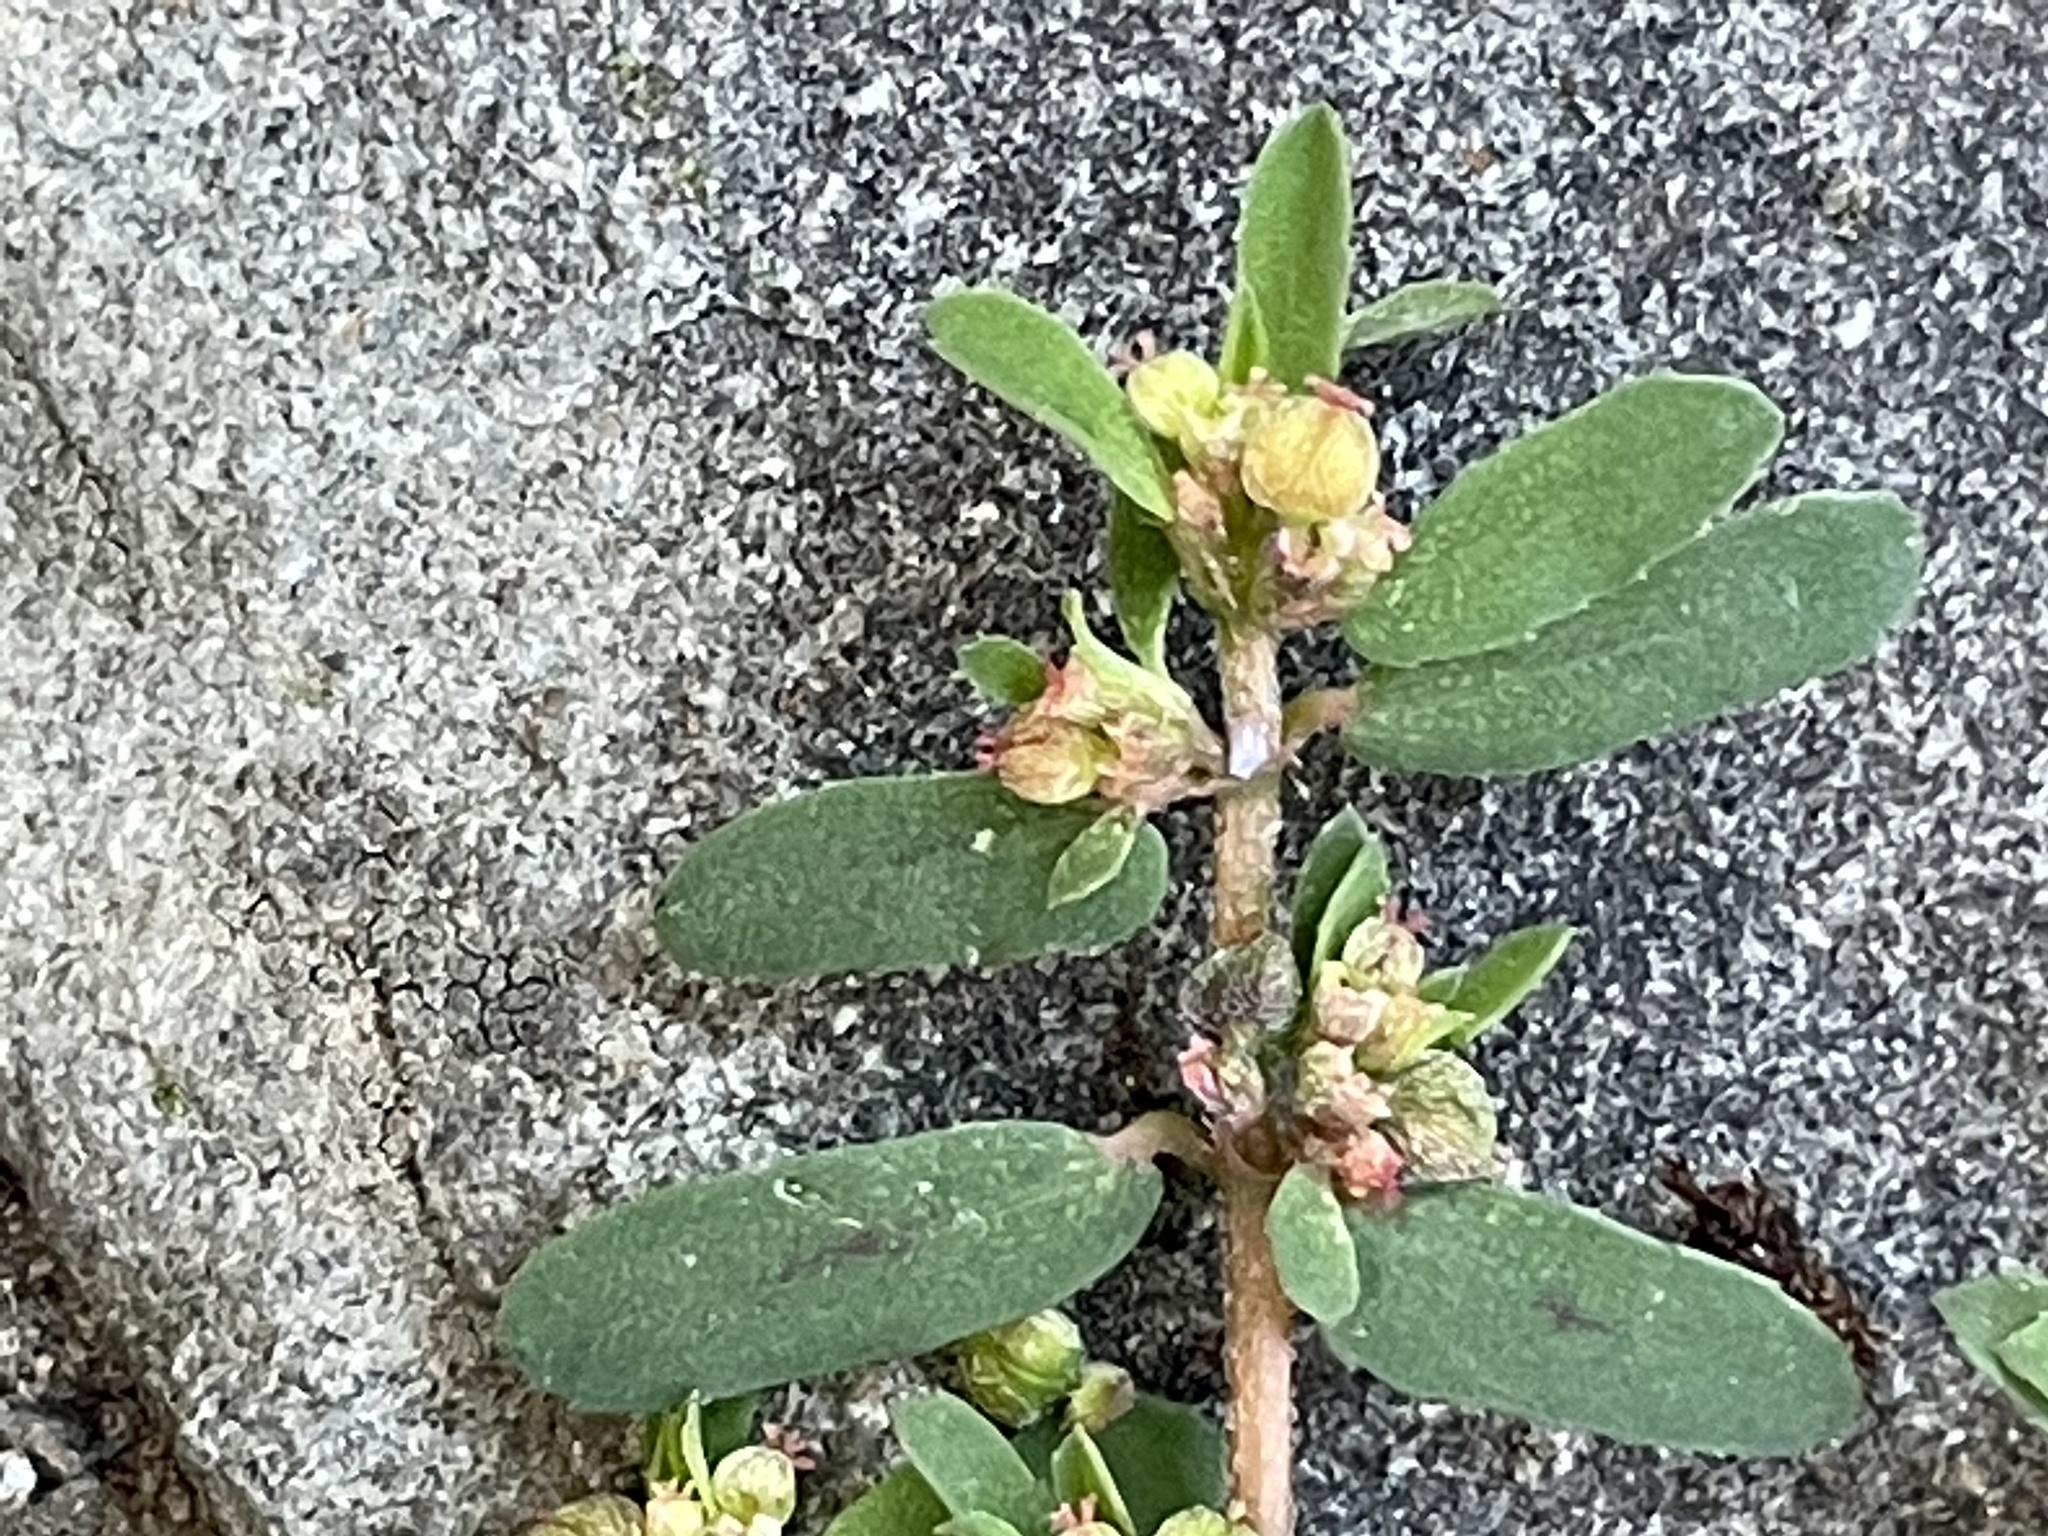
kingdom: Plantae
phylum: Tracheophyta
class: Magnoliopsida
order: Malpighiales
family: Euphorbiaceae
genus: Euphorbia
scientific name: Euphorbia maculata
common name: Spotted spurge
